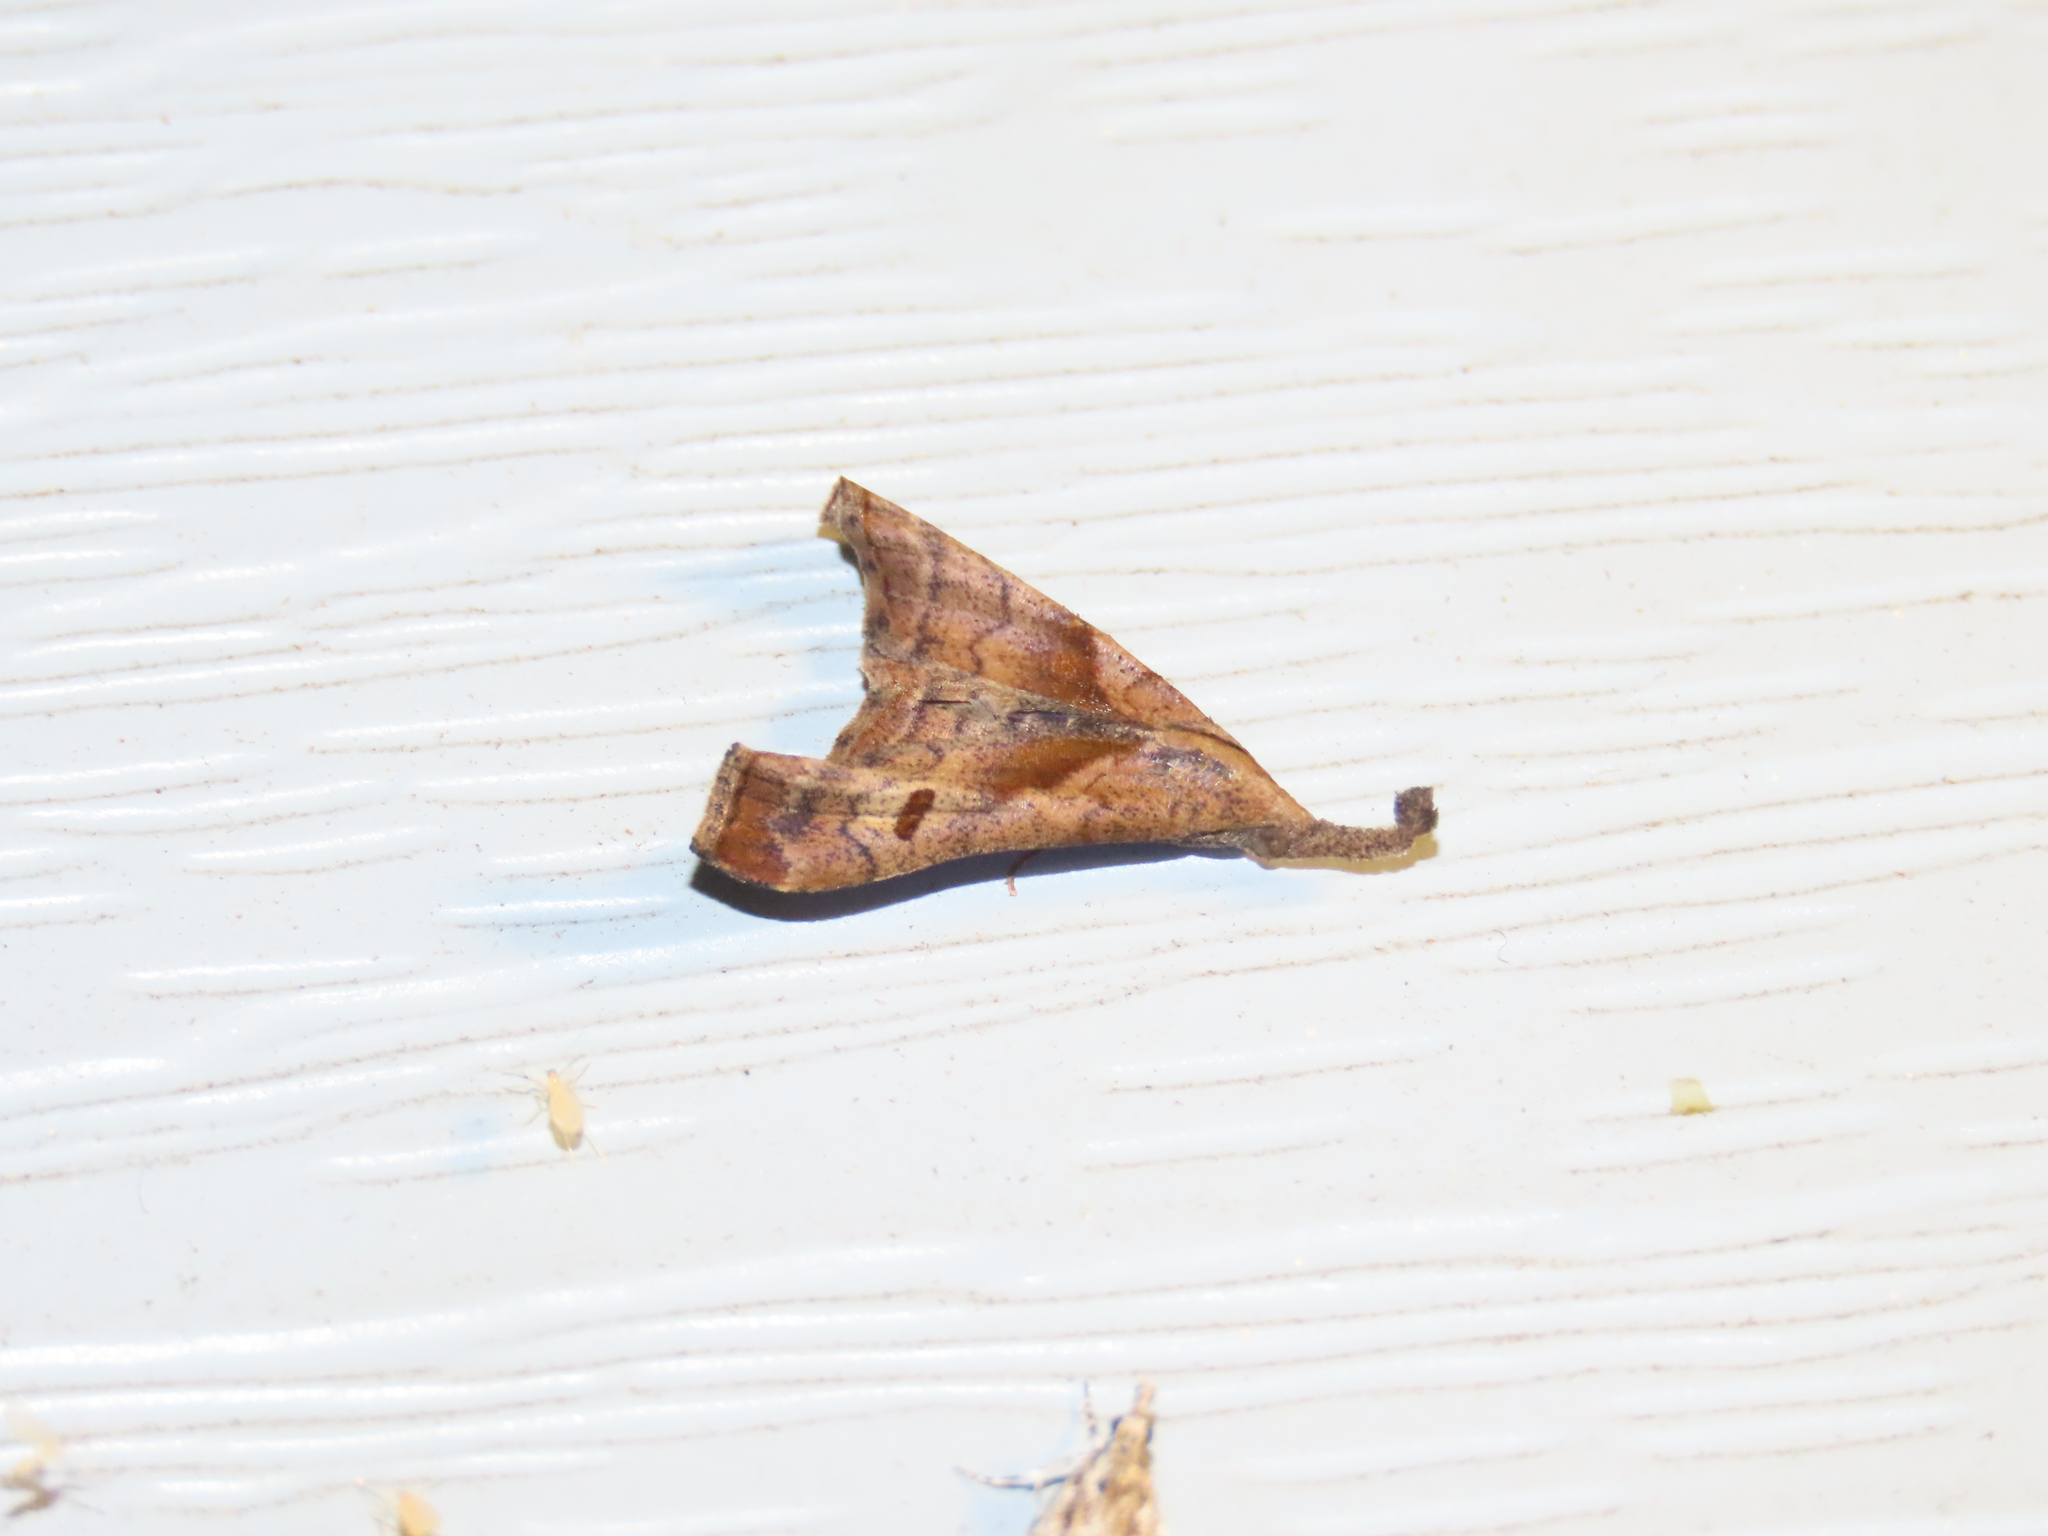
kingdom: Animalia
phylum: Arthropoda
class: Insecta
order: Lepidoptera
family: Erebidae
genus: Palthis
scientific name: Palthis angulalis
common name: Dark-spotted palthis moth
